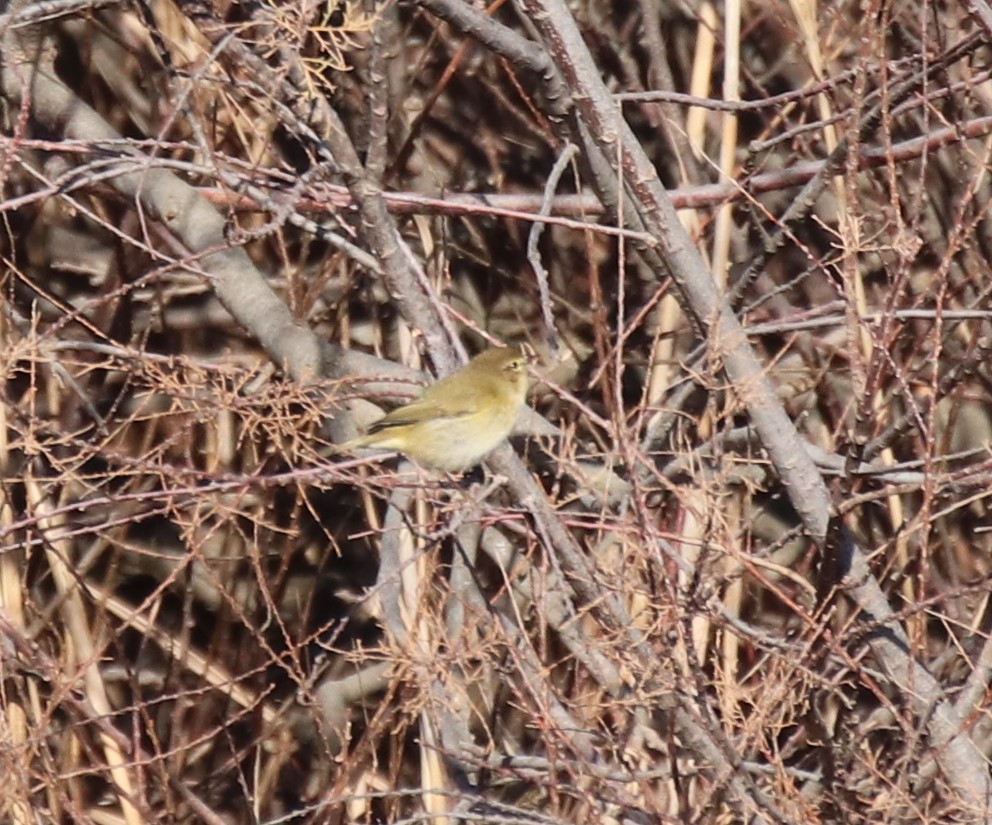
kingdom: Animalia
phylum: Chordata
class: Aves
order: Passeriformes
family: Phylloscopidae
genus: Phylloscopus
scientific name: Phylloscopus collybita
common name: Common chiffchaff
